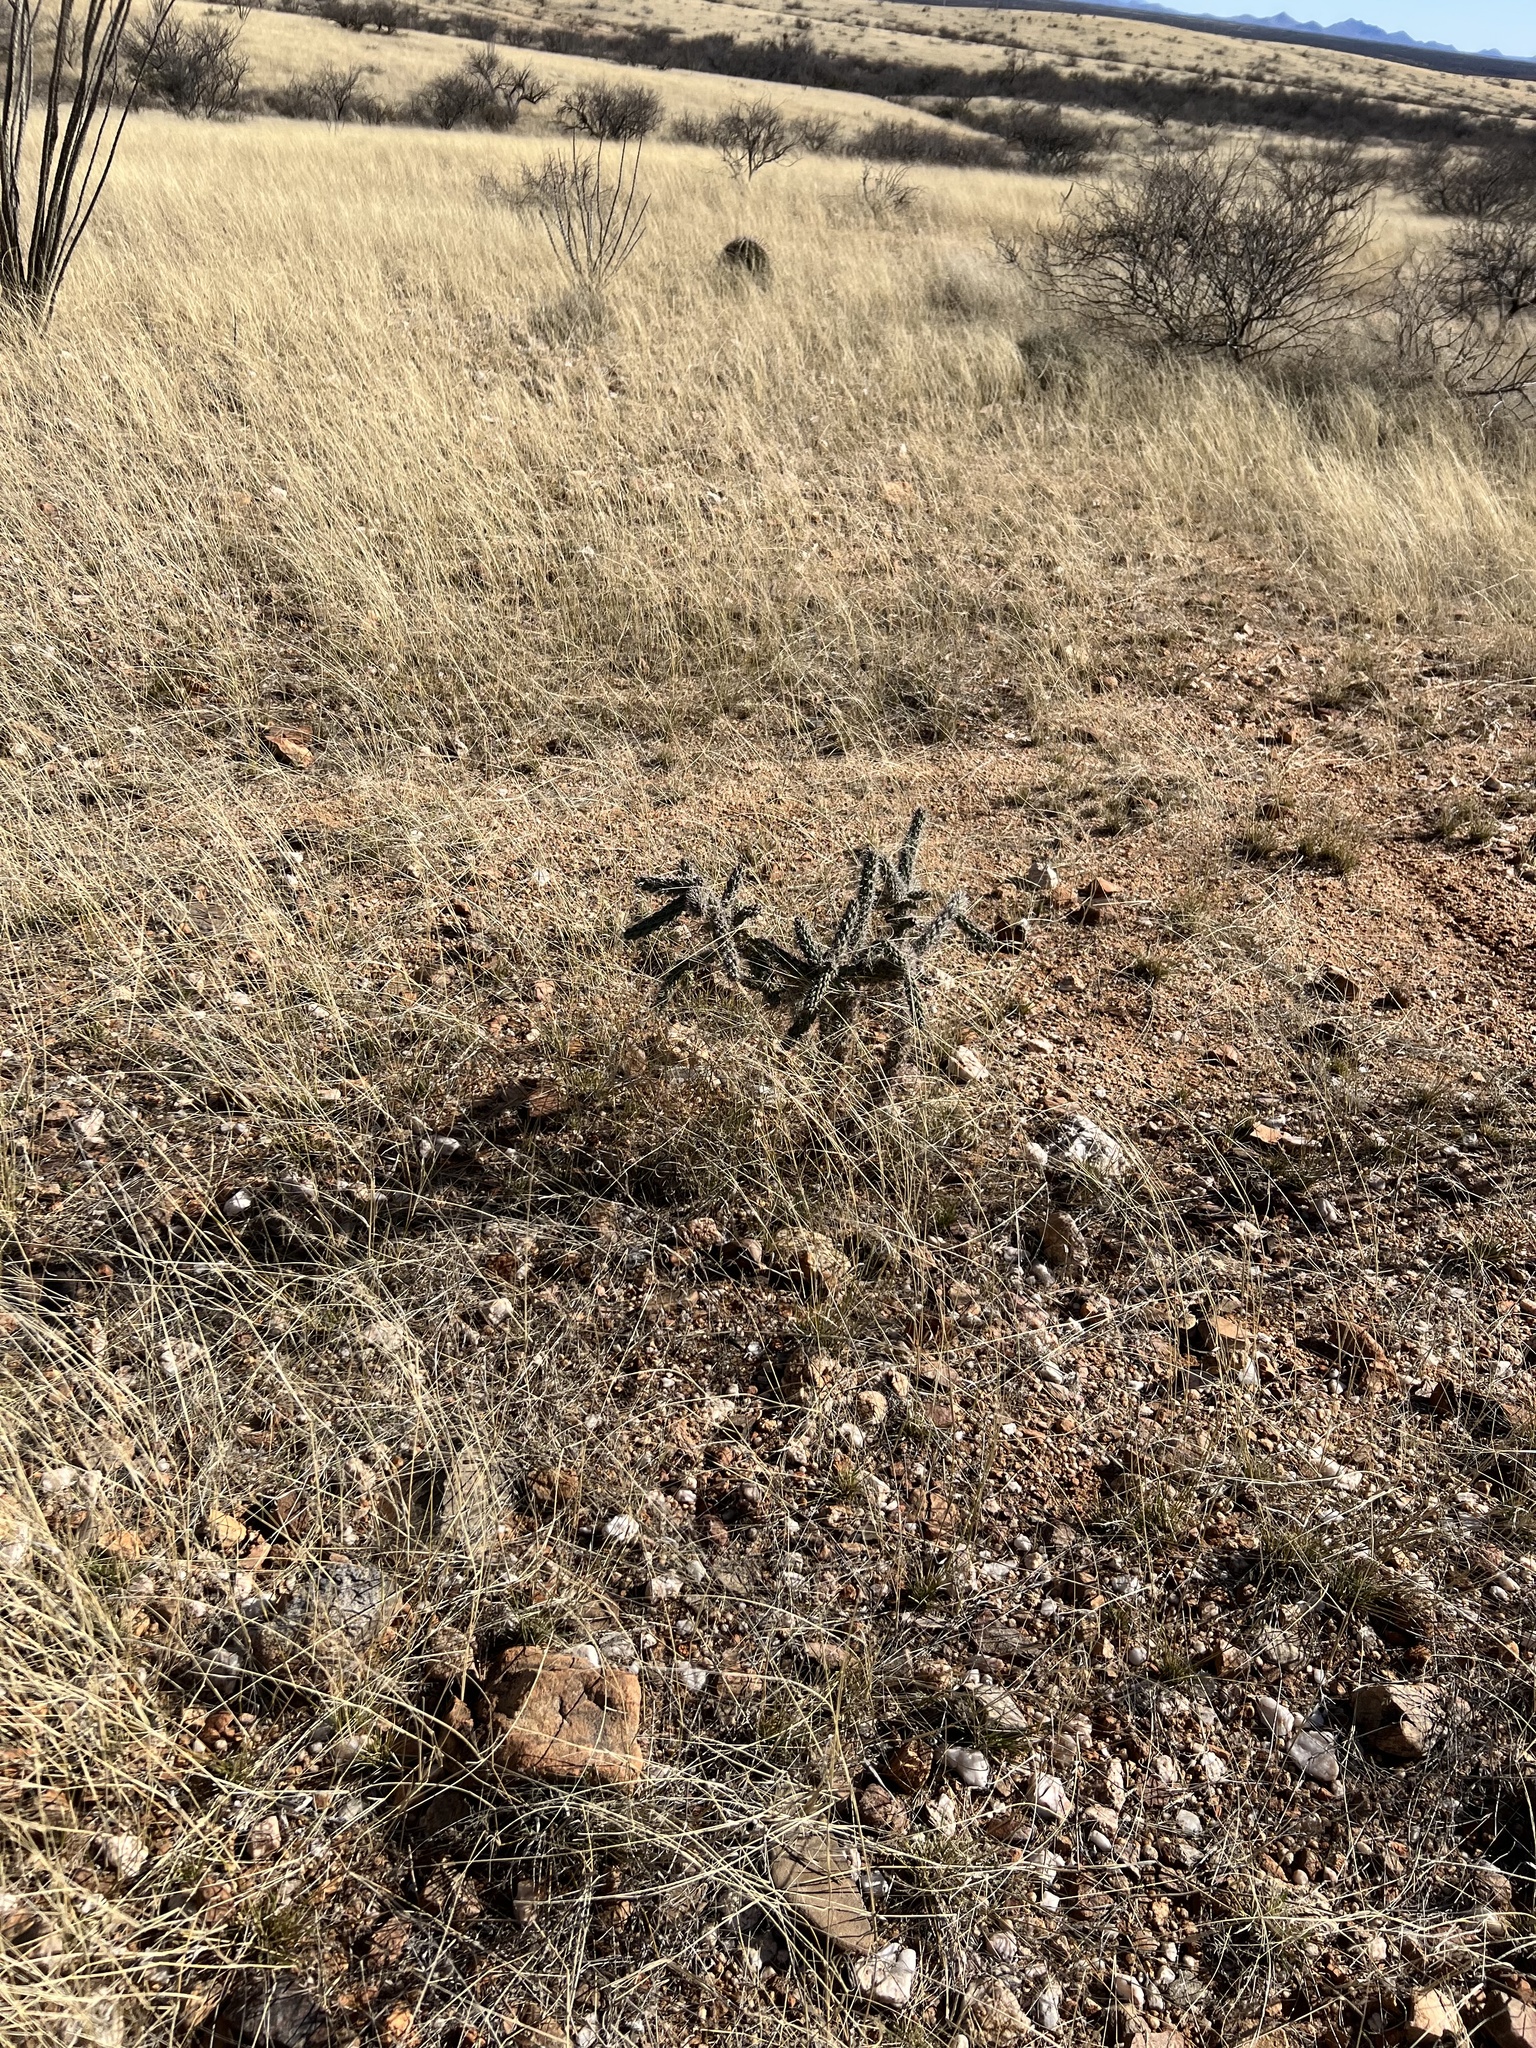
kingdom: Plantae
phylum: Tracheophyta
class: Magnoliopsida
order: Caryophyllales
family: Cactaceae
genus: Cylindropuntia
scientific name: Cylindropuntia imbricata
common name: Candelabrum cactus
